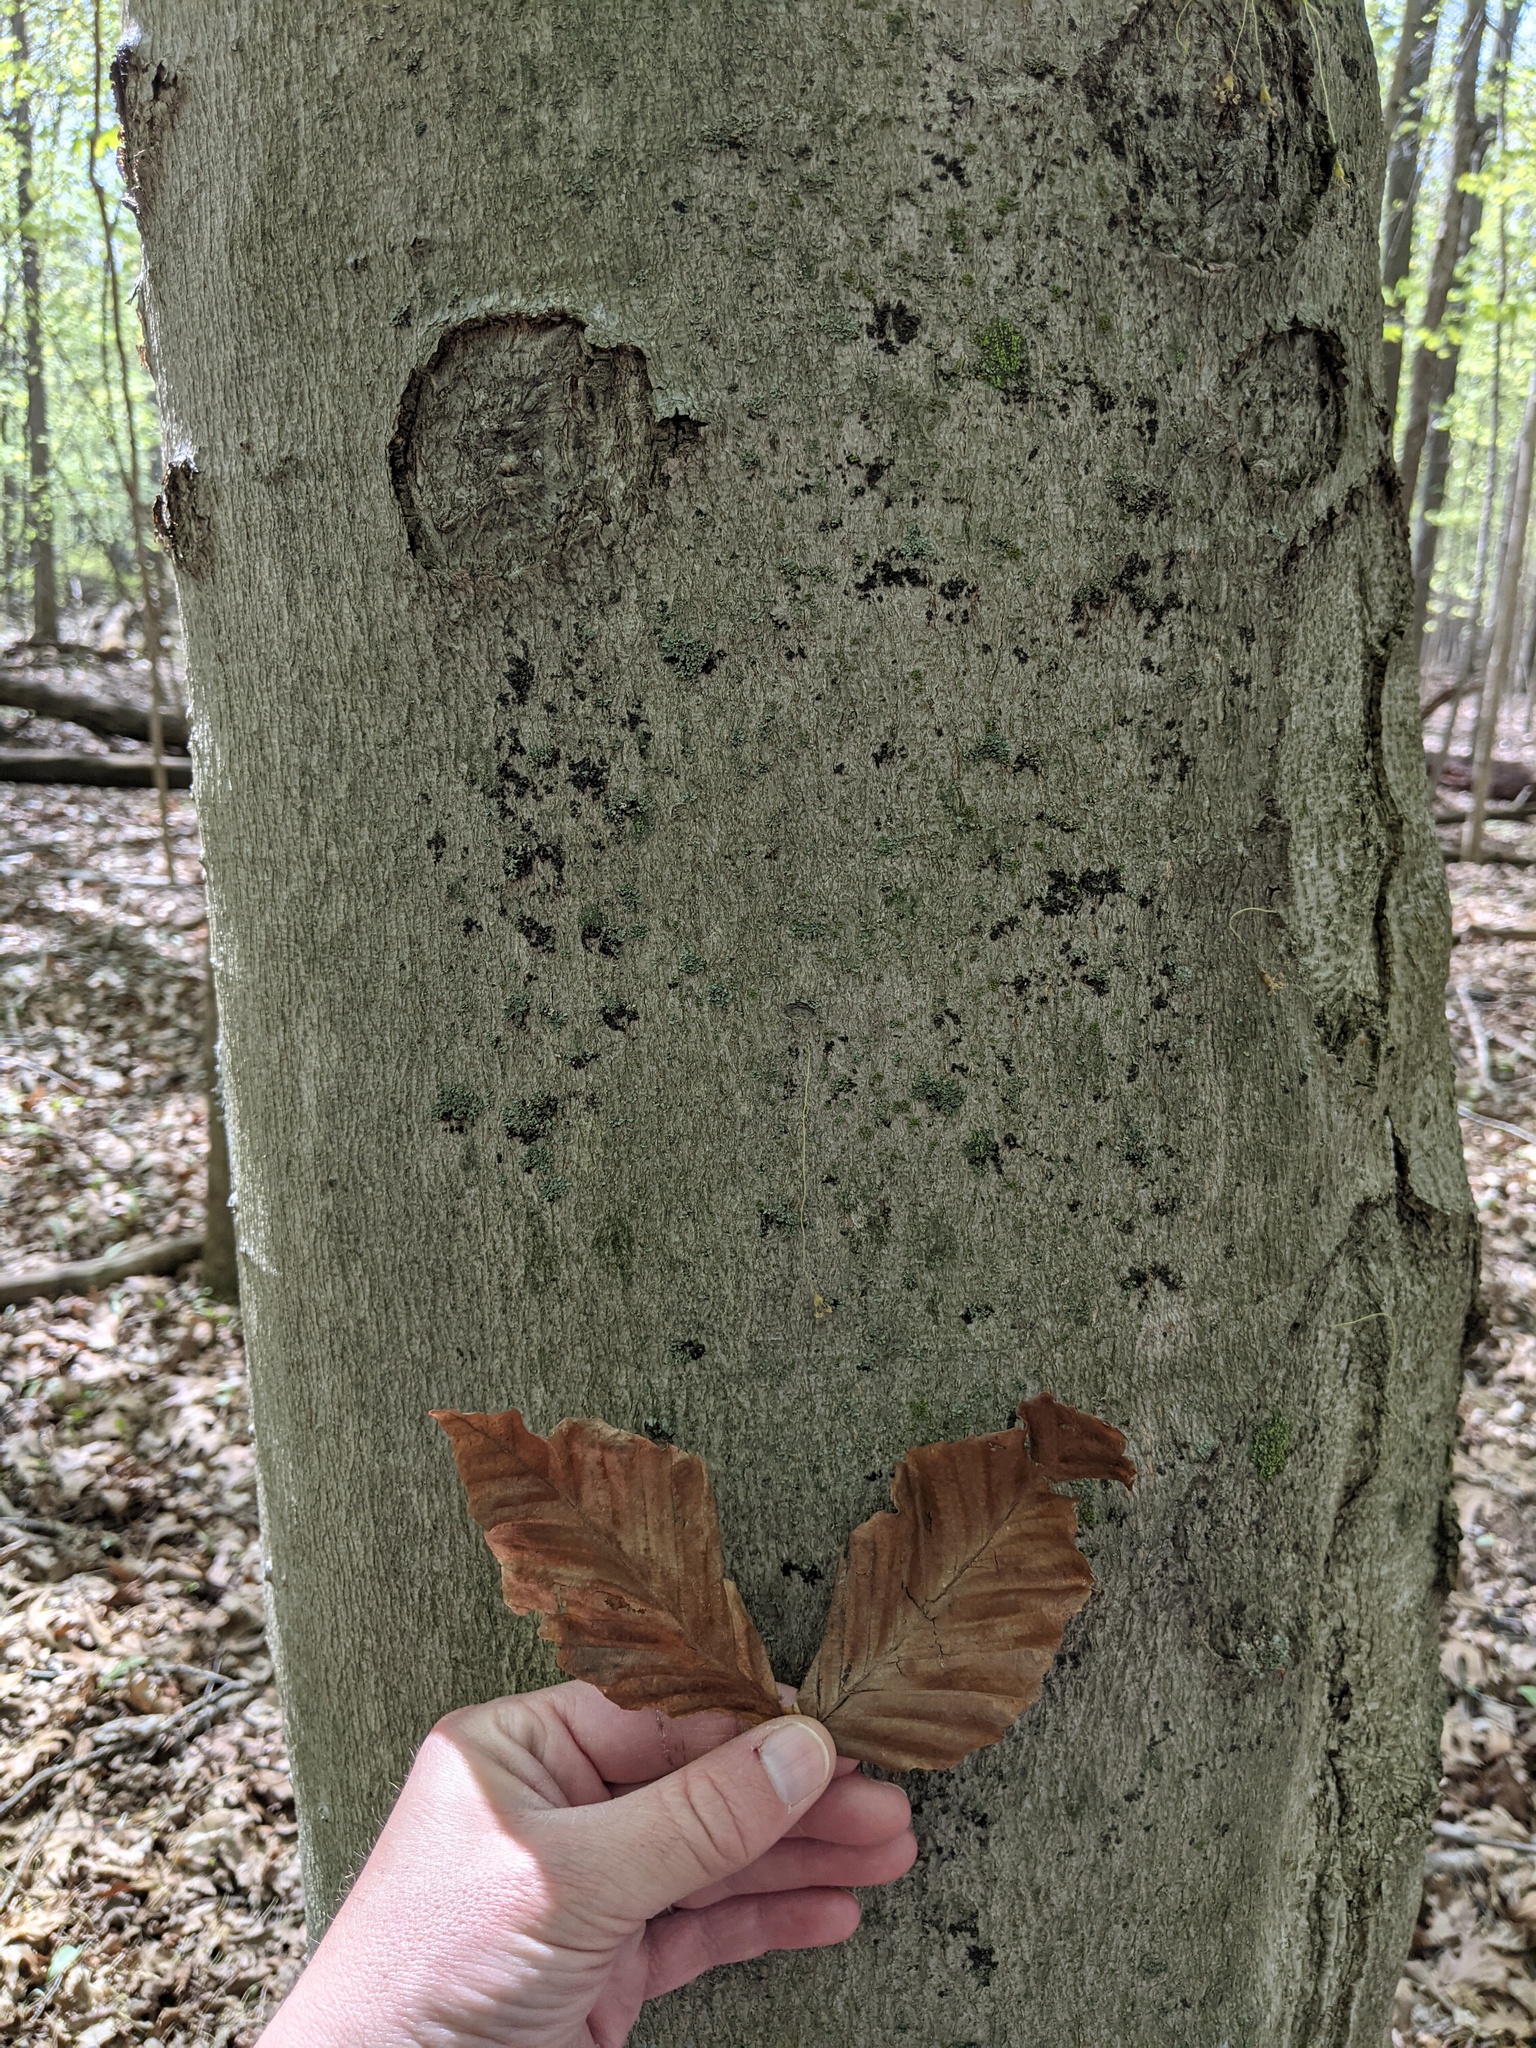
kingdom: Plantae
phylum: Tracheophyta
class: Magnoliopsida
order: Fagales
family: Fagaceae
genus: Fagus
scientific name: Fagus grandifolia
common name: American beech
